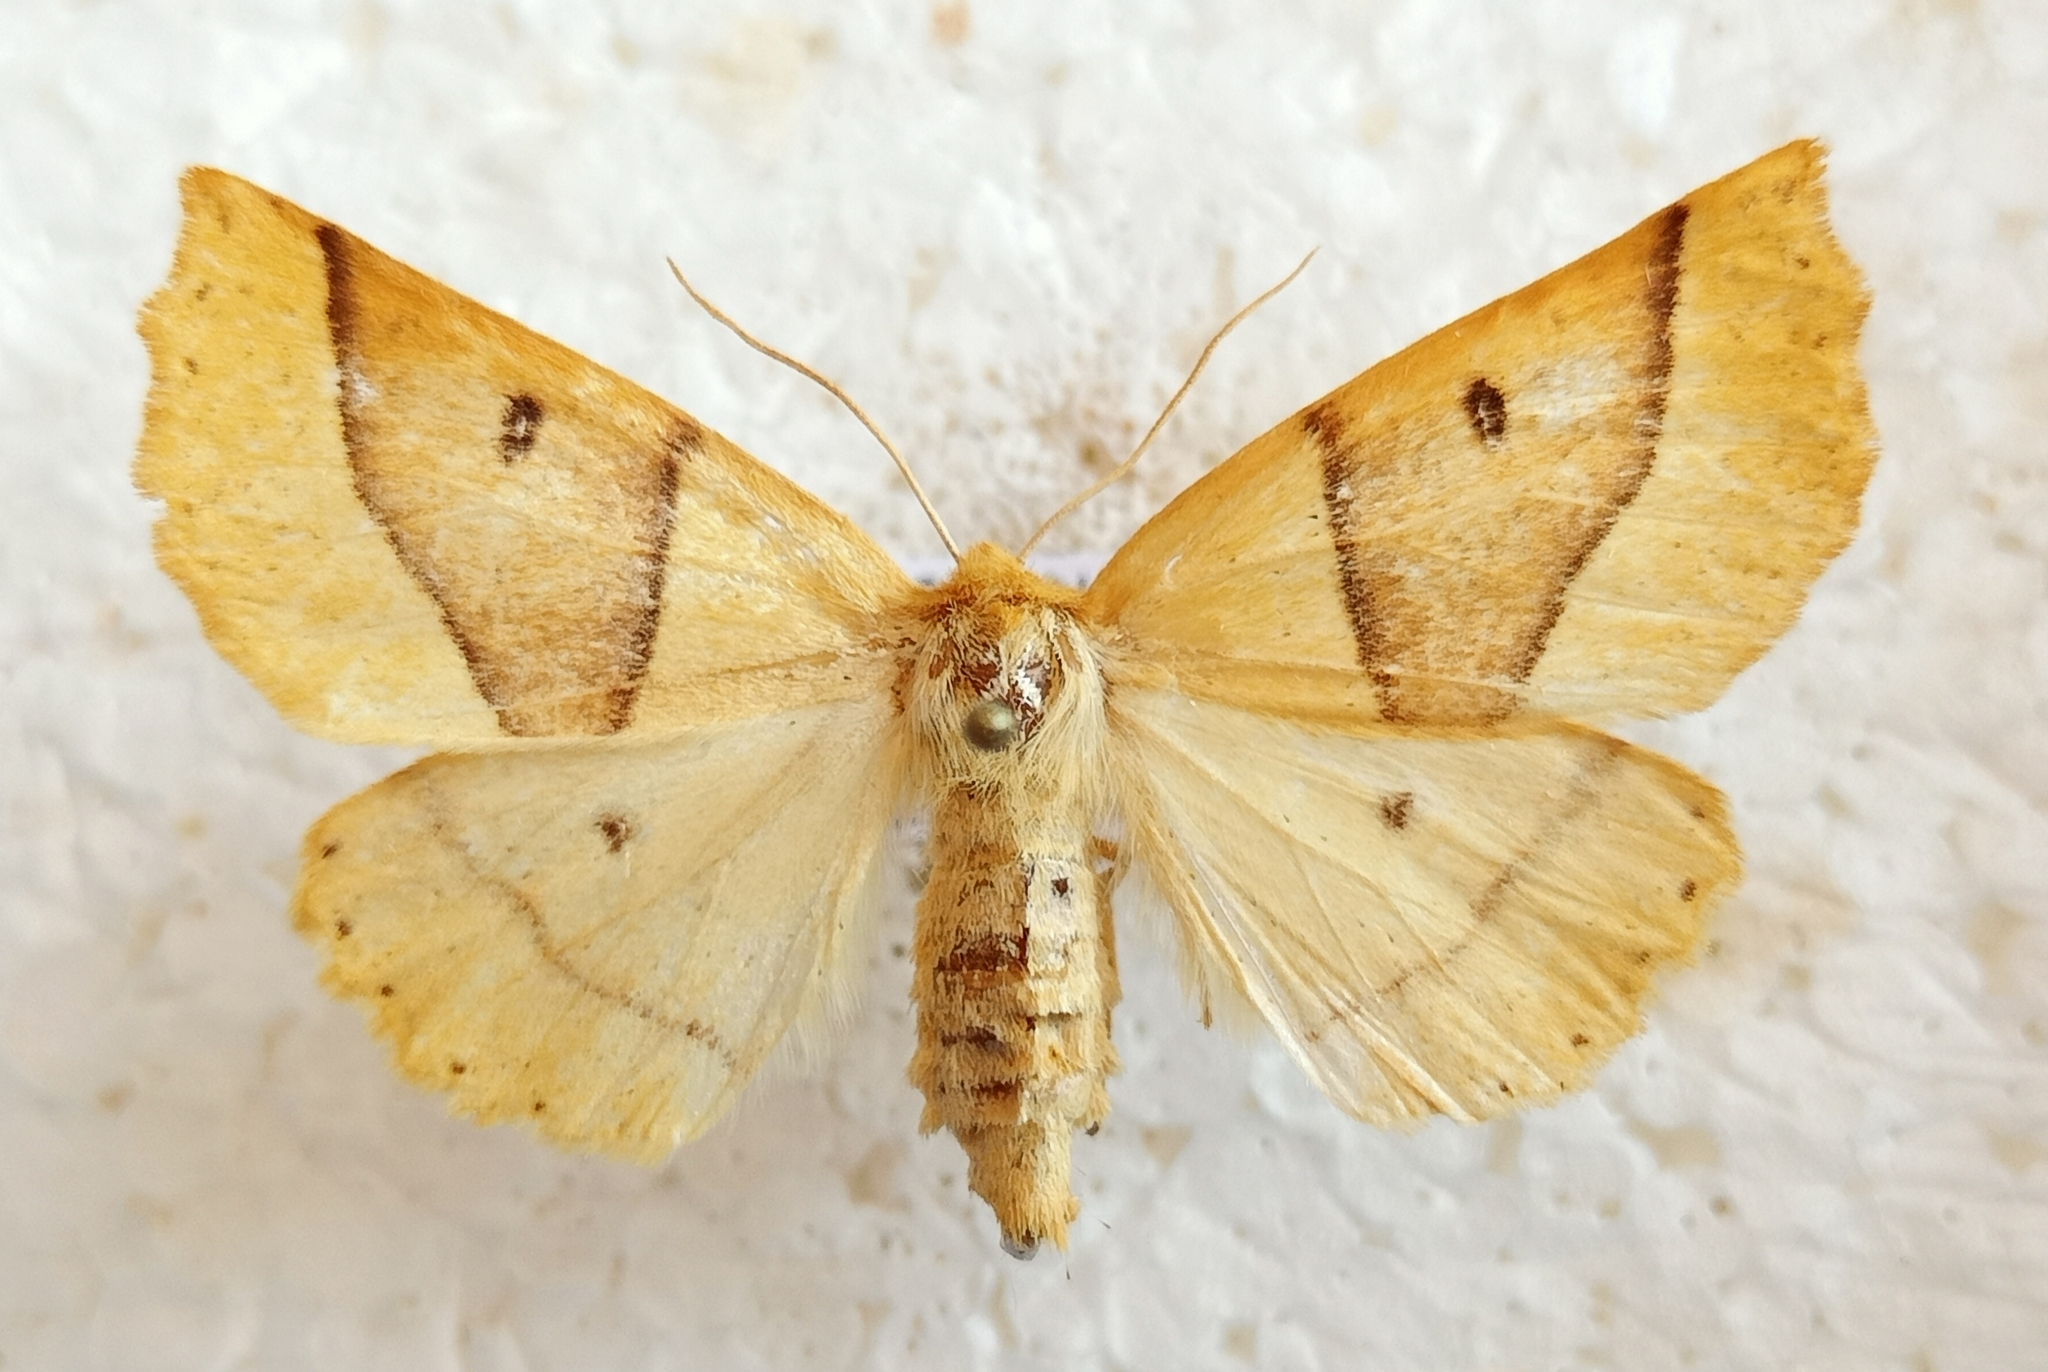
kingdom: Animalia
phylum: Arthropoda
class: Insecta
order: Lepidoptera
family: Geometridae
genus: Crocallis
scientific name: Crocallis elinguaria
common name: Scalloped oak
